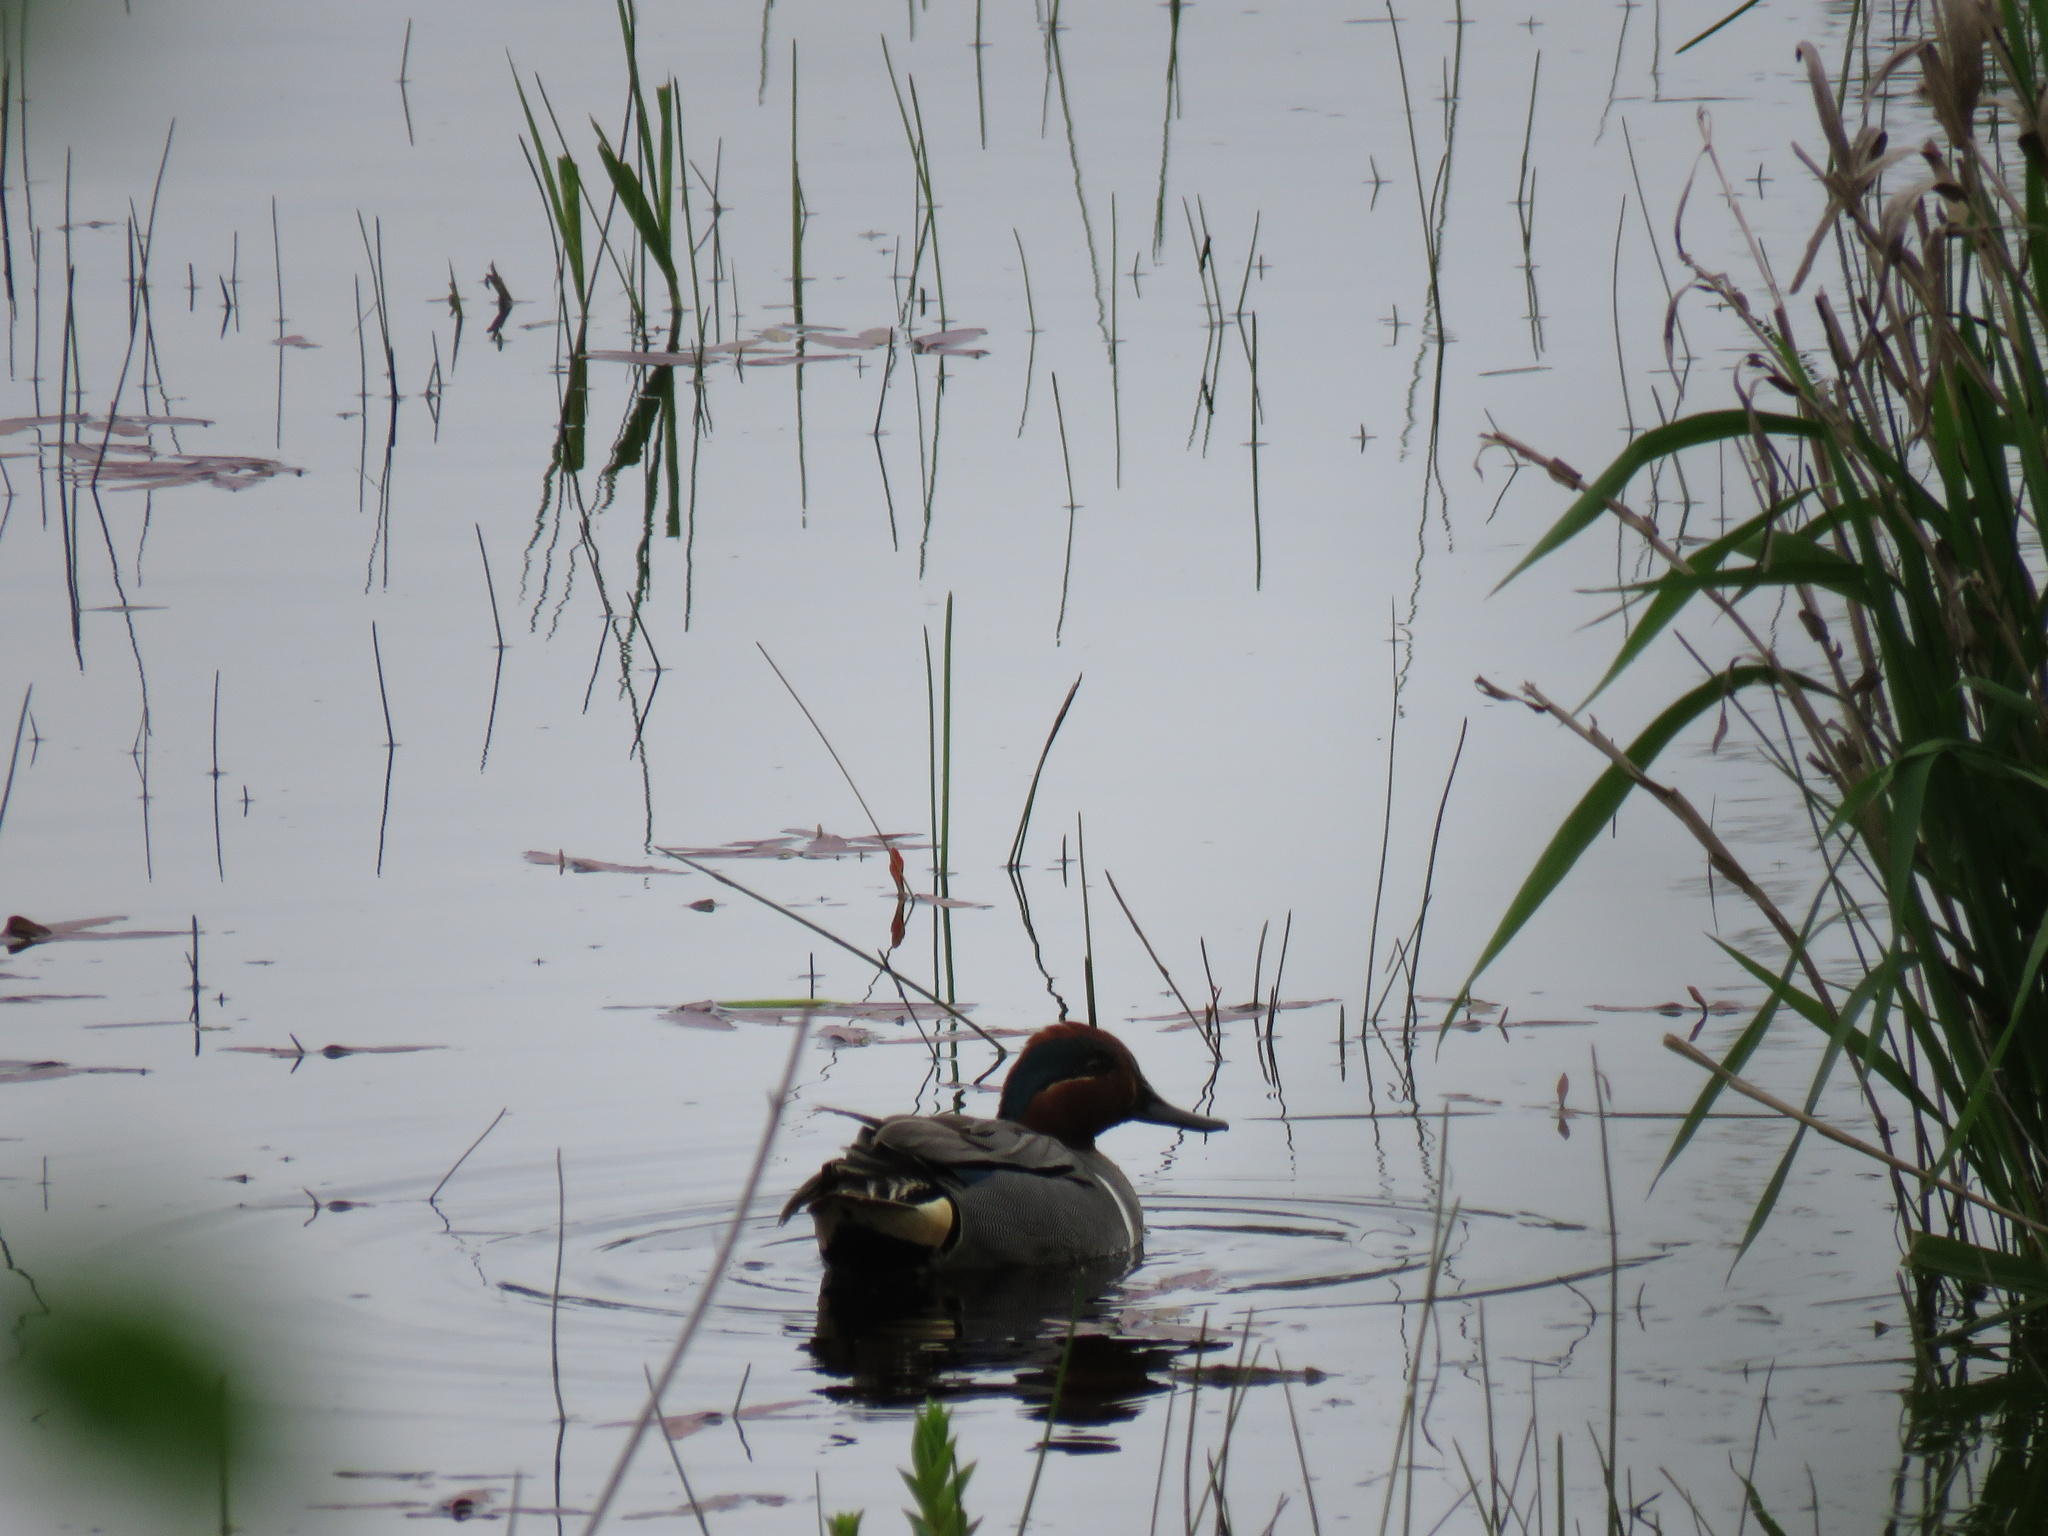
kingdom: Animalia
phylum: Chordata
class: Aves
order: Anseriformes
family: Anatidae
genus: Anas
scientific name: Anas crecca
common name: Eurasian teal
